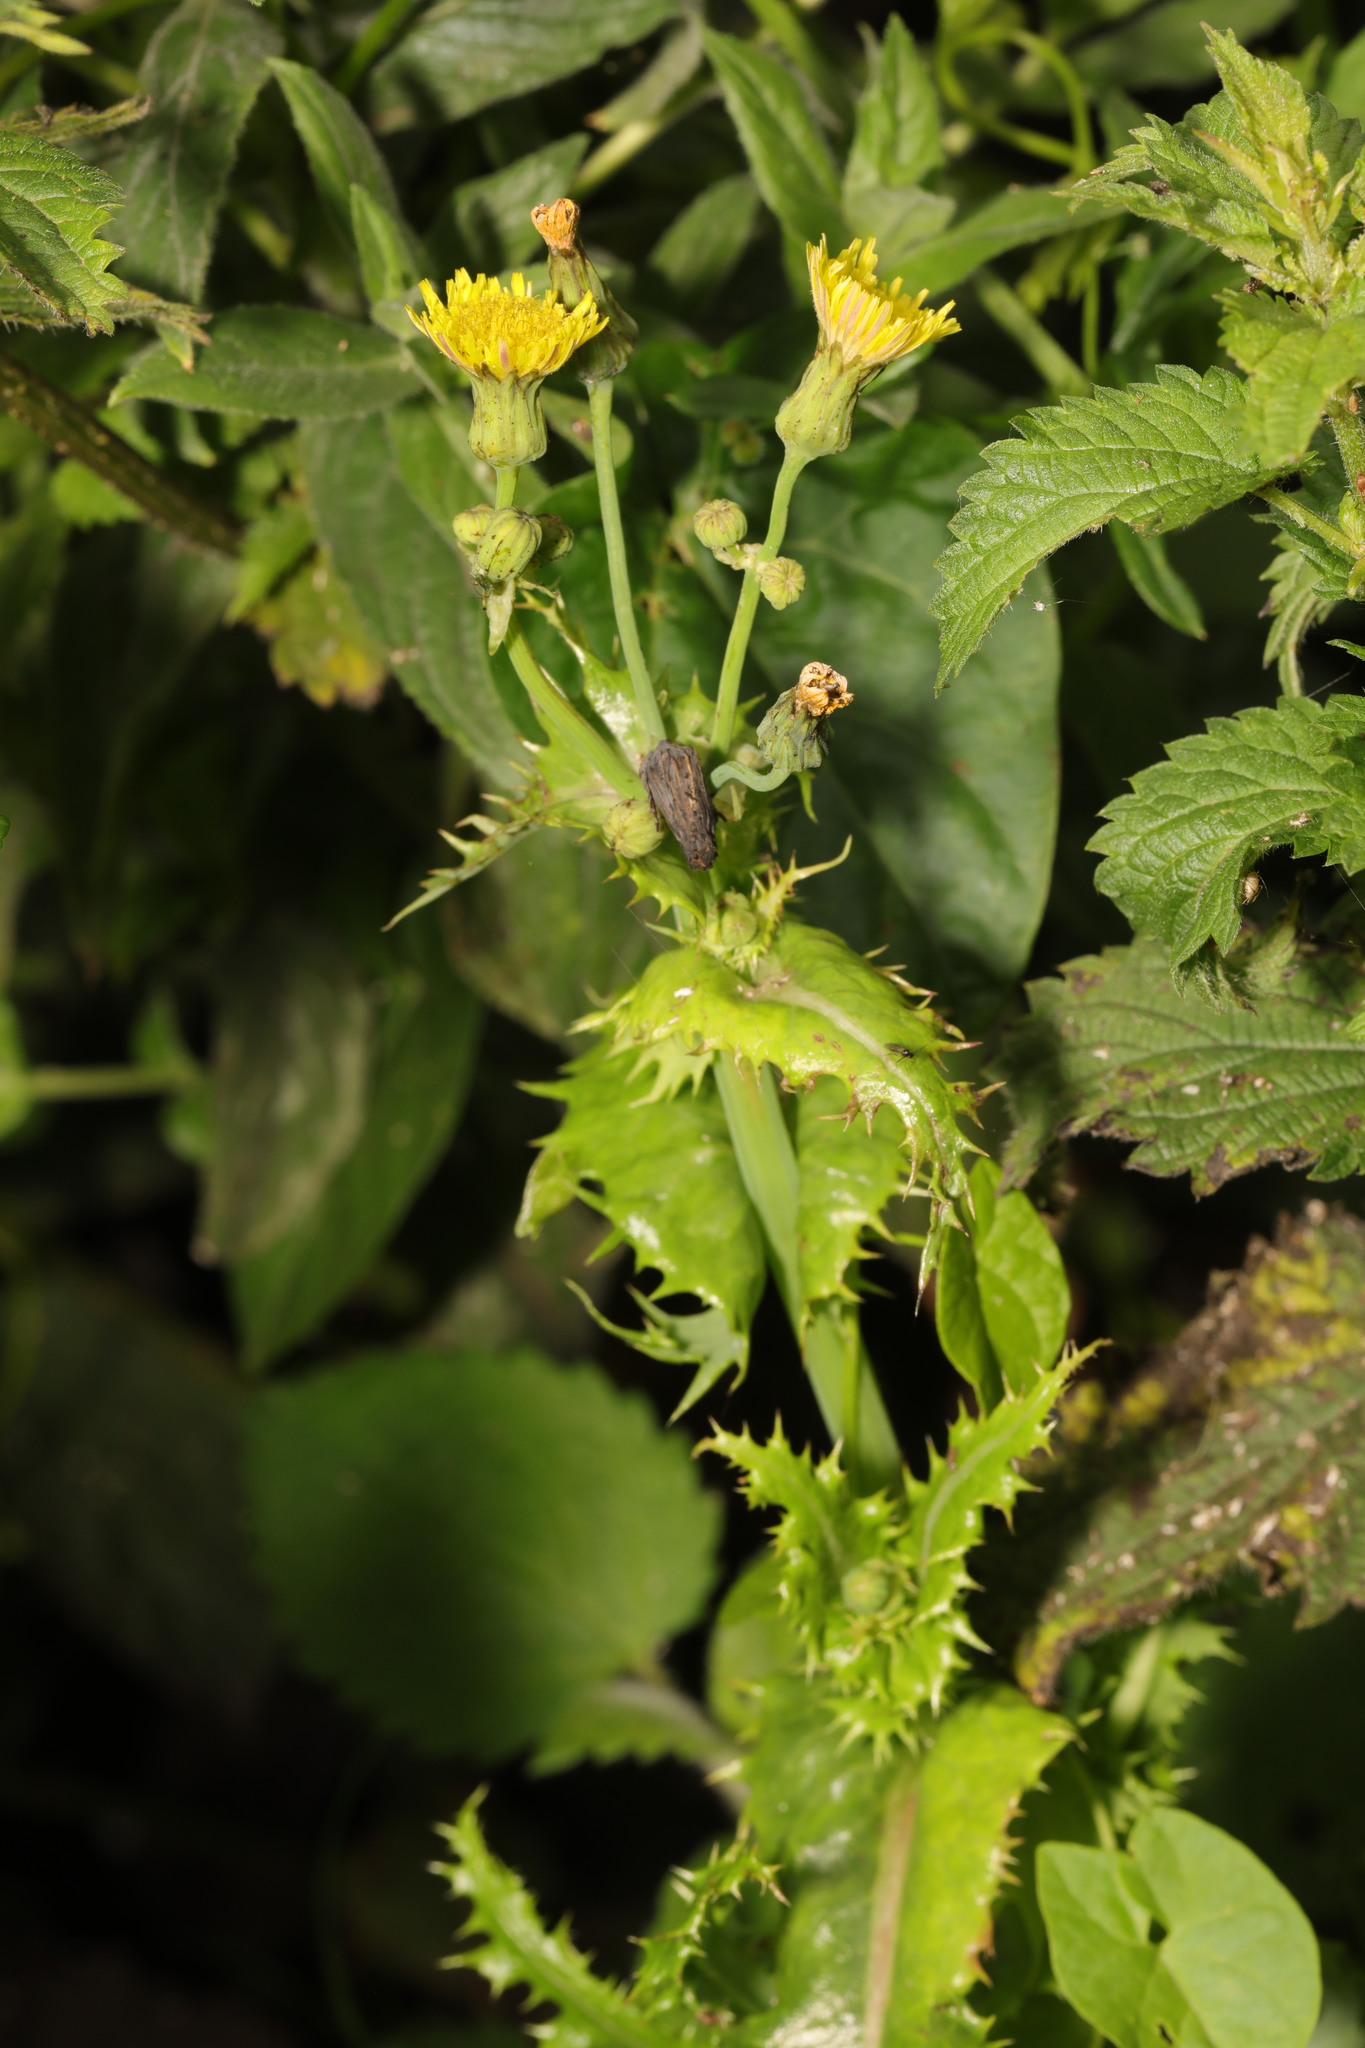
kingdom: Plantae
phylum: Tracheophyta
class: Magnoliopsida
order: Asterales
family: Asteraceae
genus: Sonchus
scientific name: Sonchus asper
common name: Prickly sow-thistle
